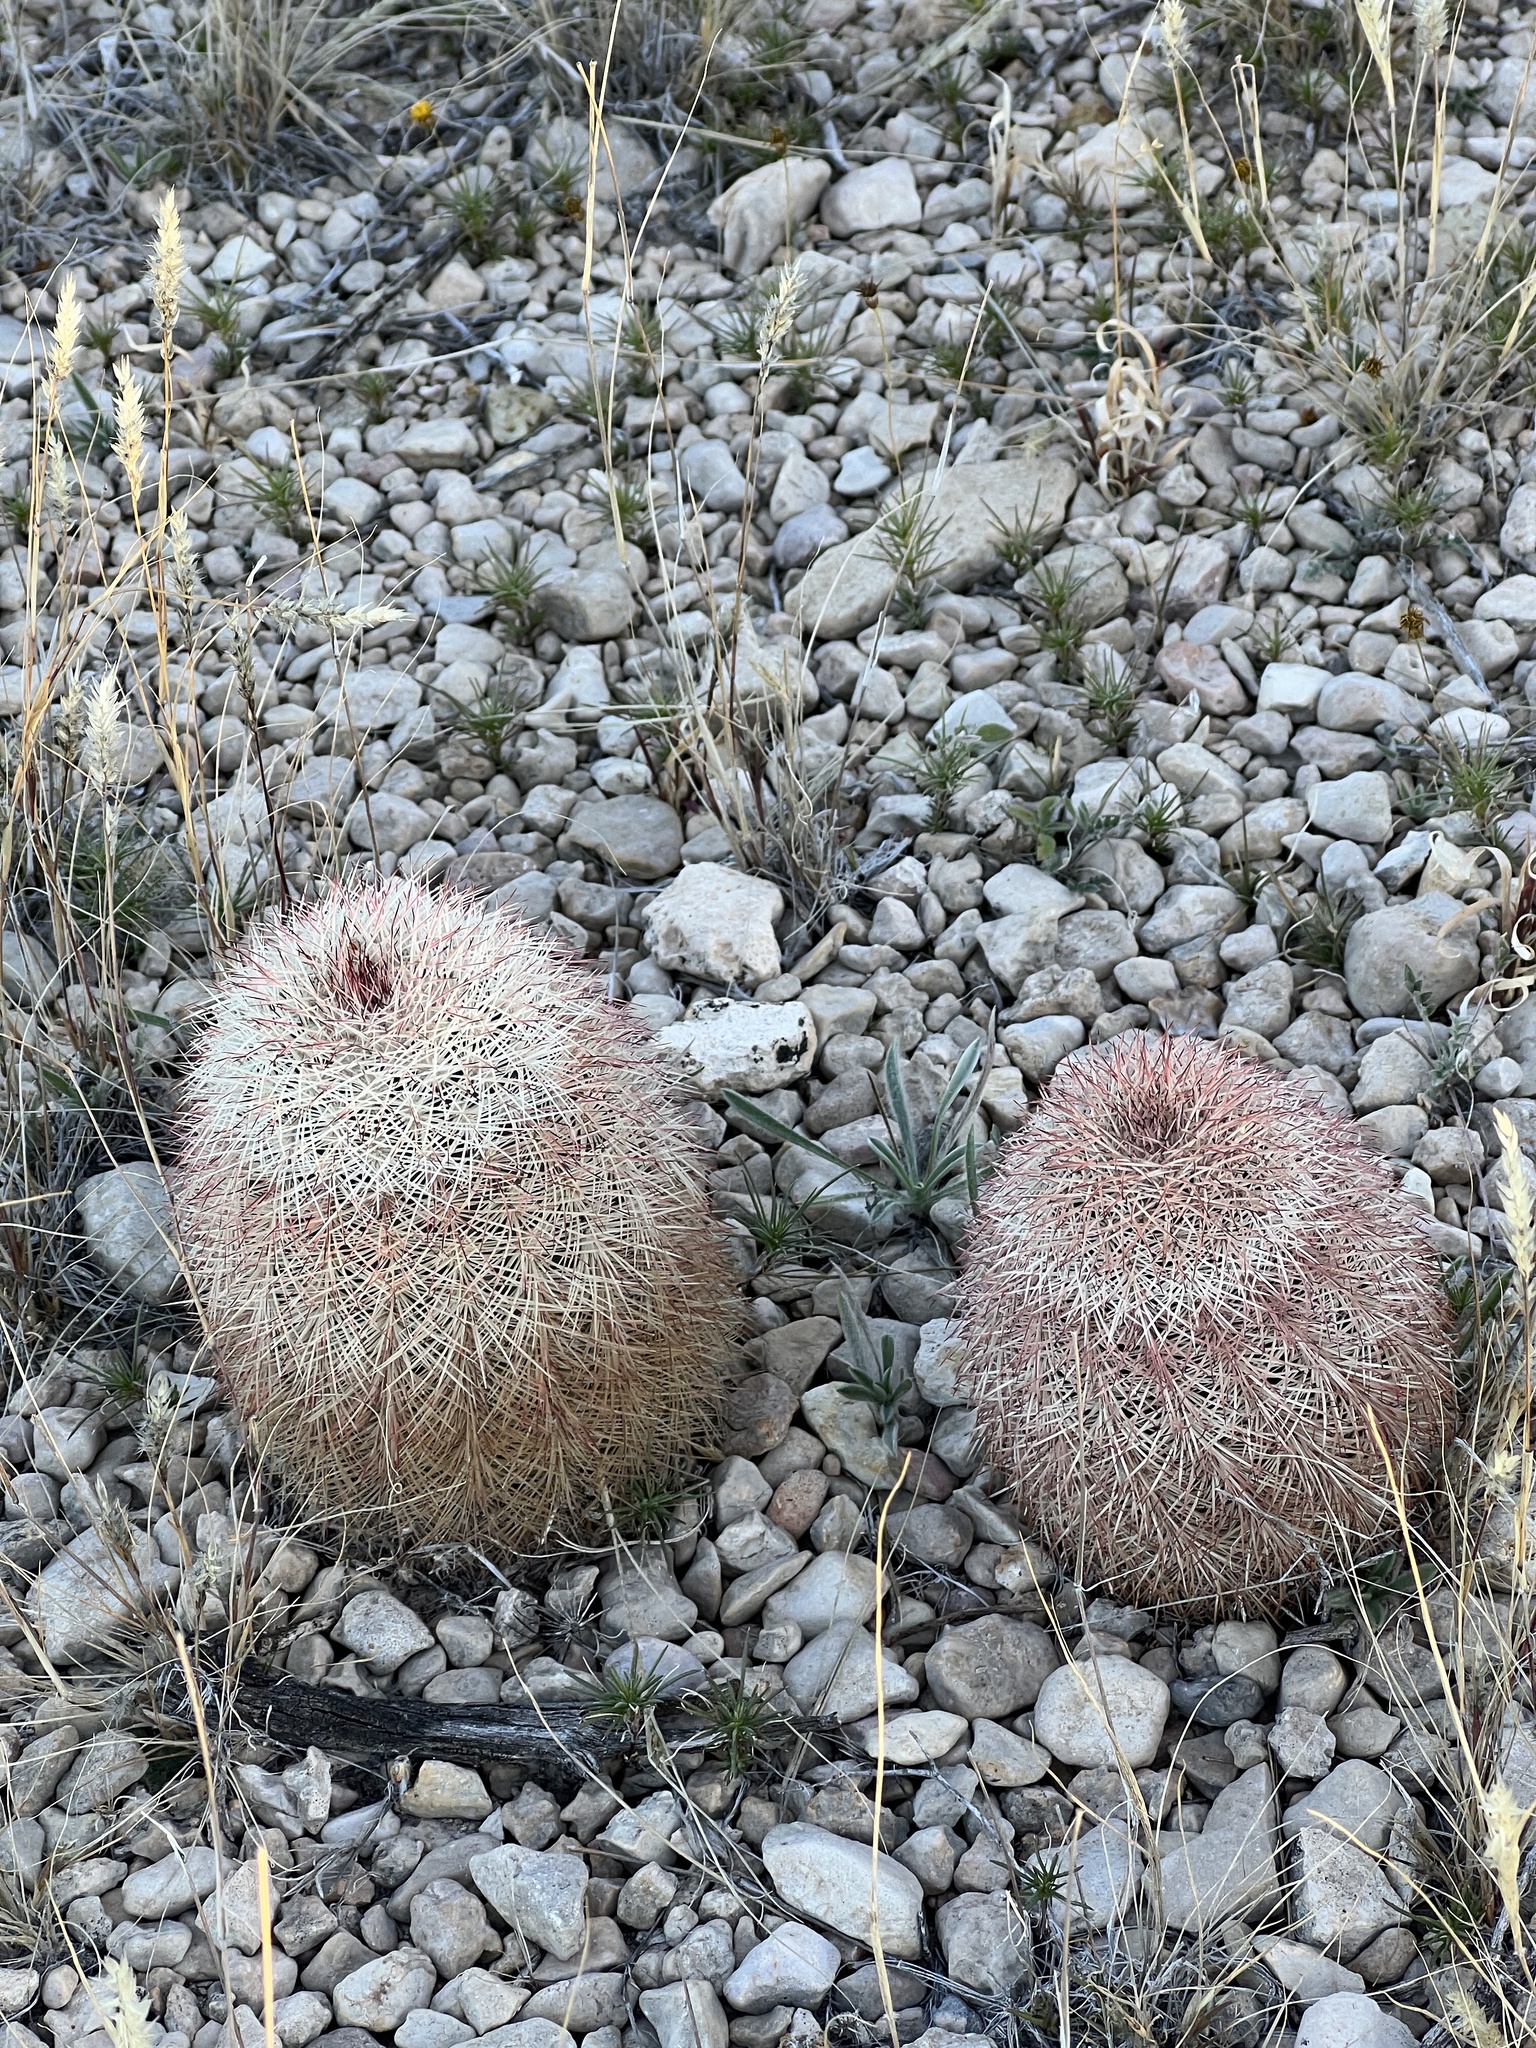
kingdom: Plantae
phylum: Tracheophyta
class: Magnoliopsida
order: Caryophyllales
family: Cactaceae
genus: Echinocereus
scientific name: Echinocereus dasyacanthus
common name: Spiny hedgehog cactus
